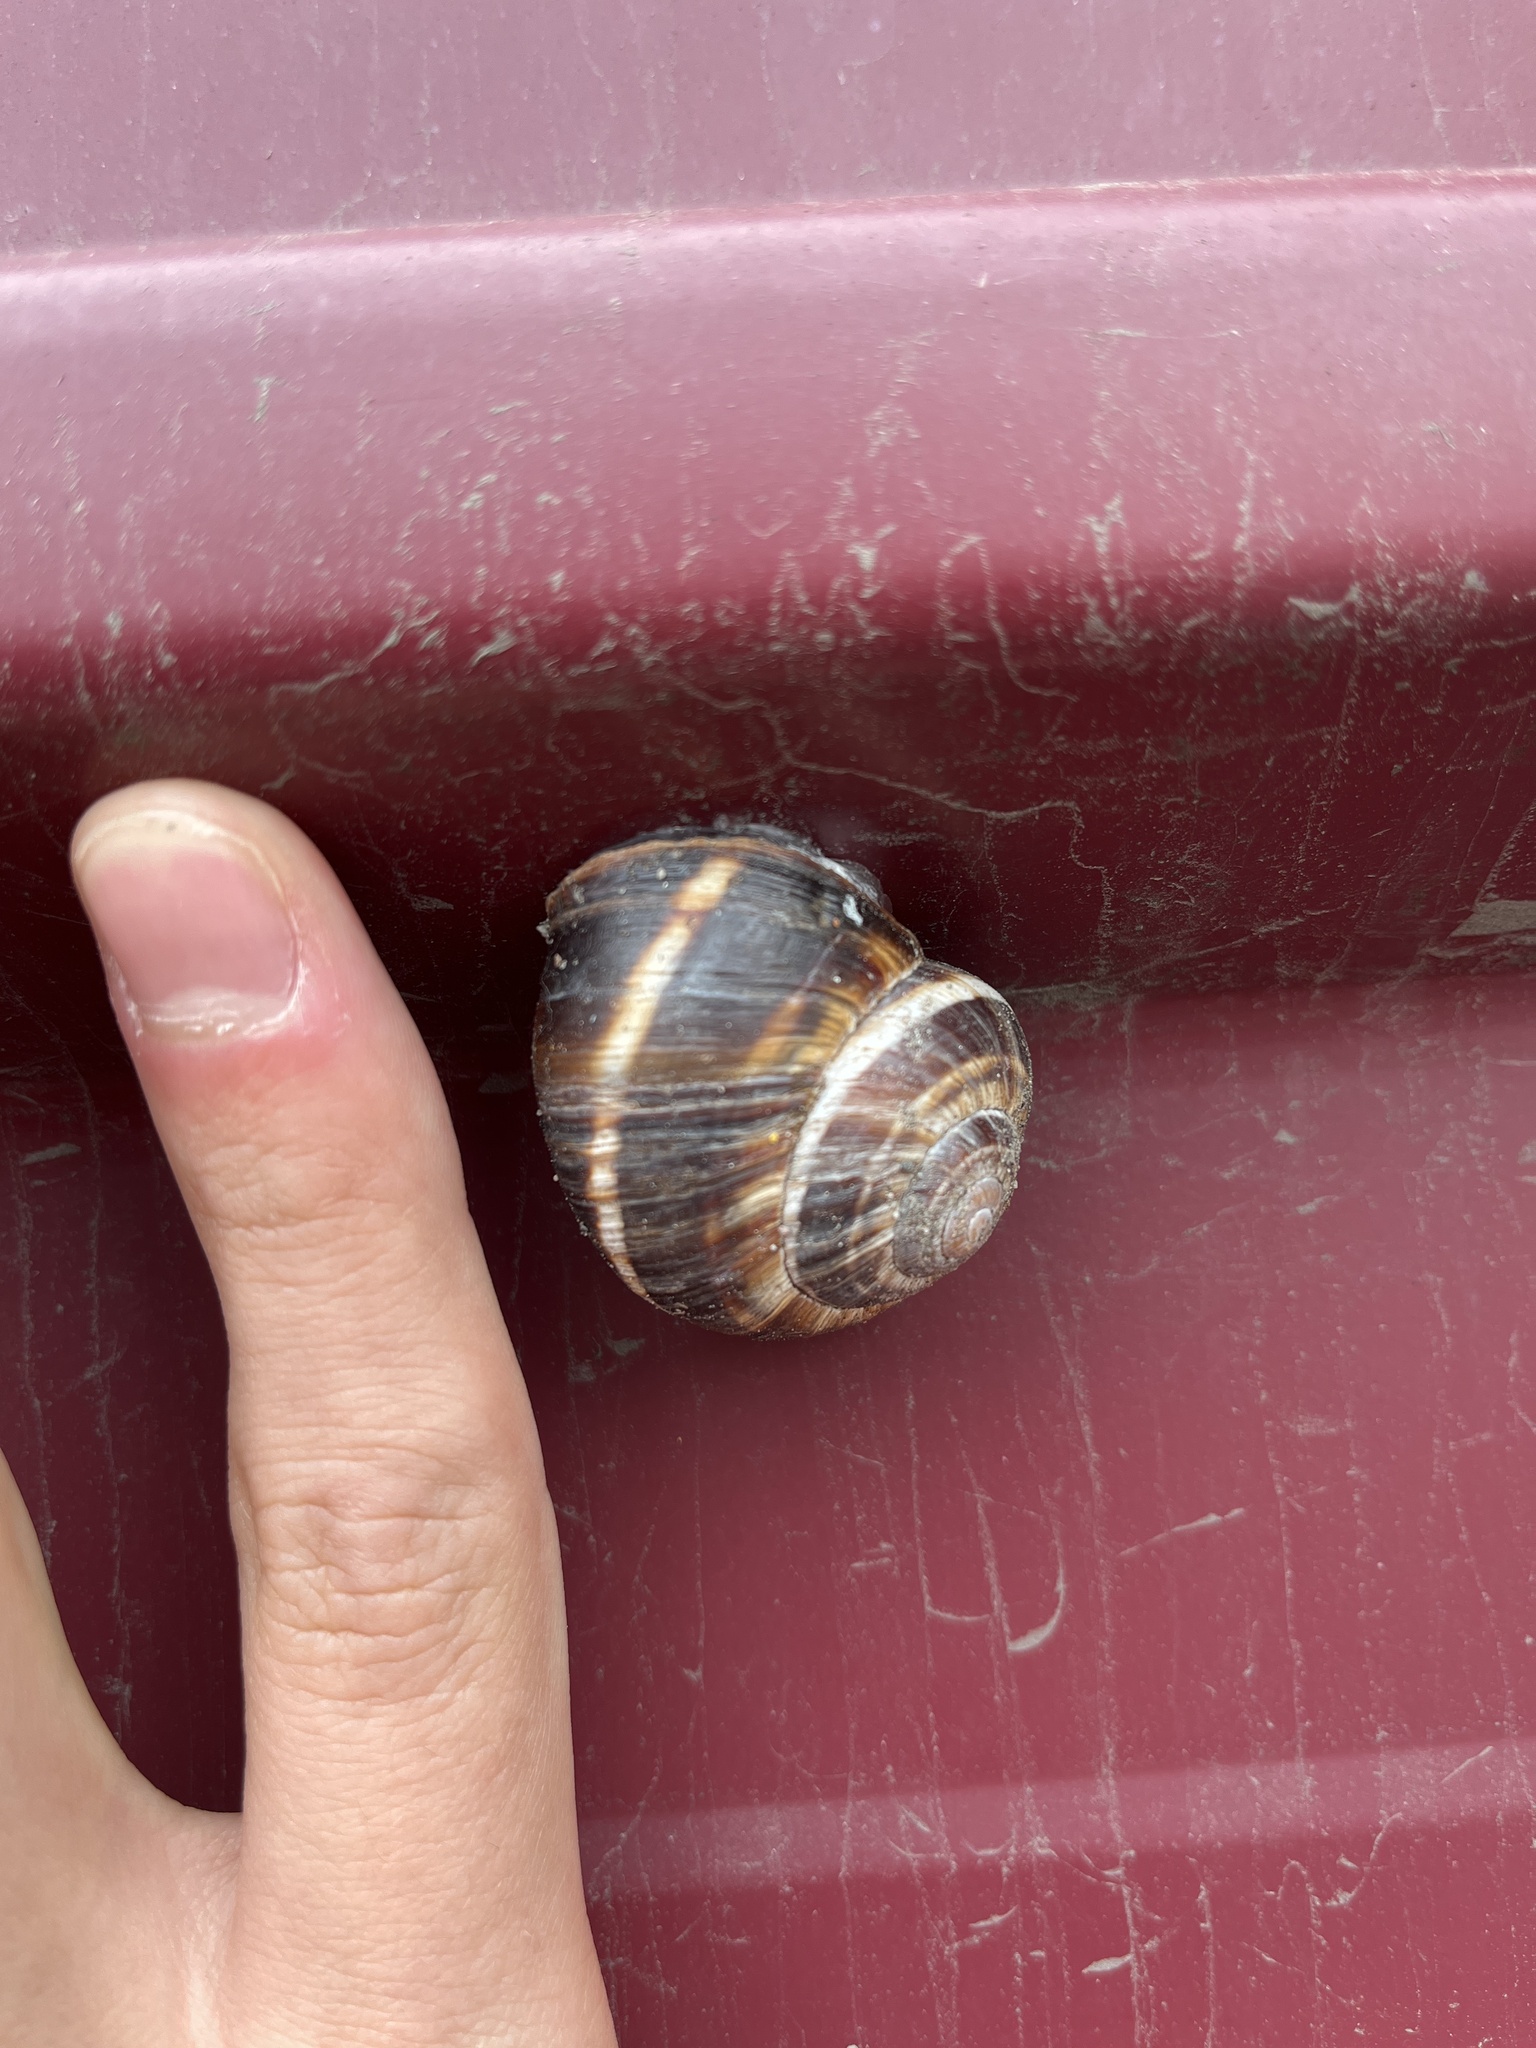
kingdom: Animalia
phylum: Mollusca
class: Gastropoda
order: Stylommatophora
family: Helicidae
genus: Helix
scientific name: Helix lucorum
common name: Turkish snail
